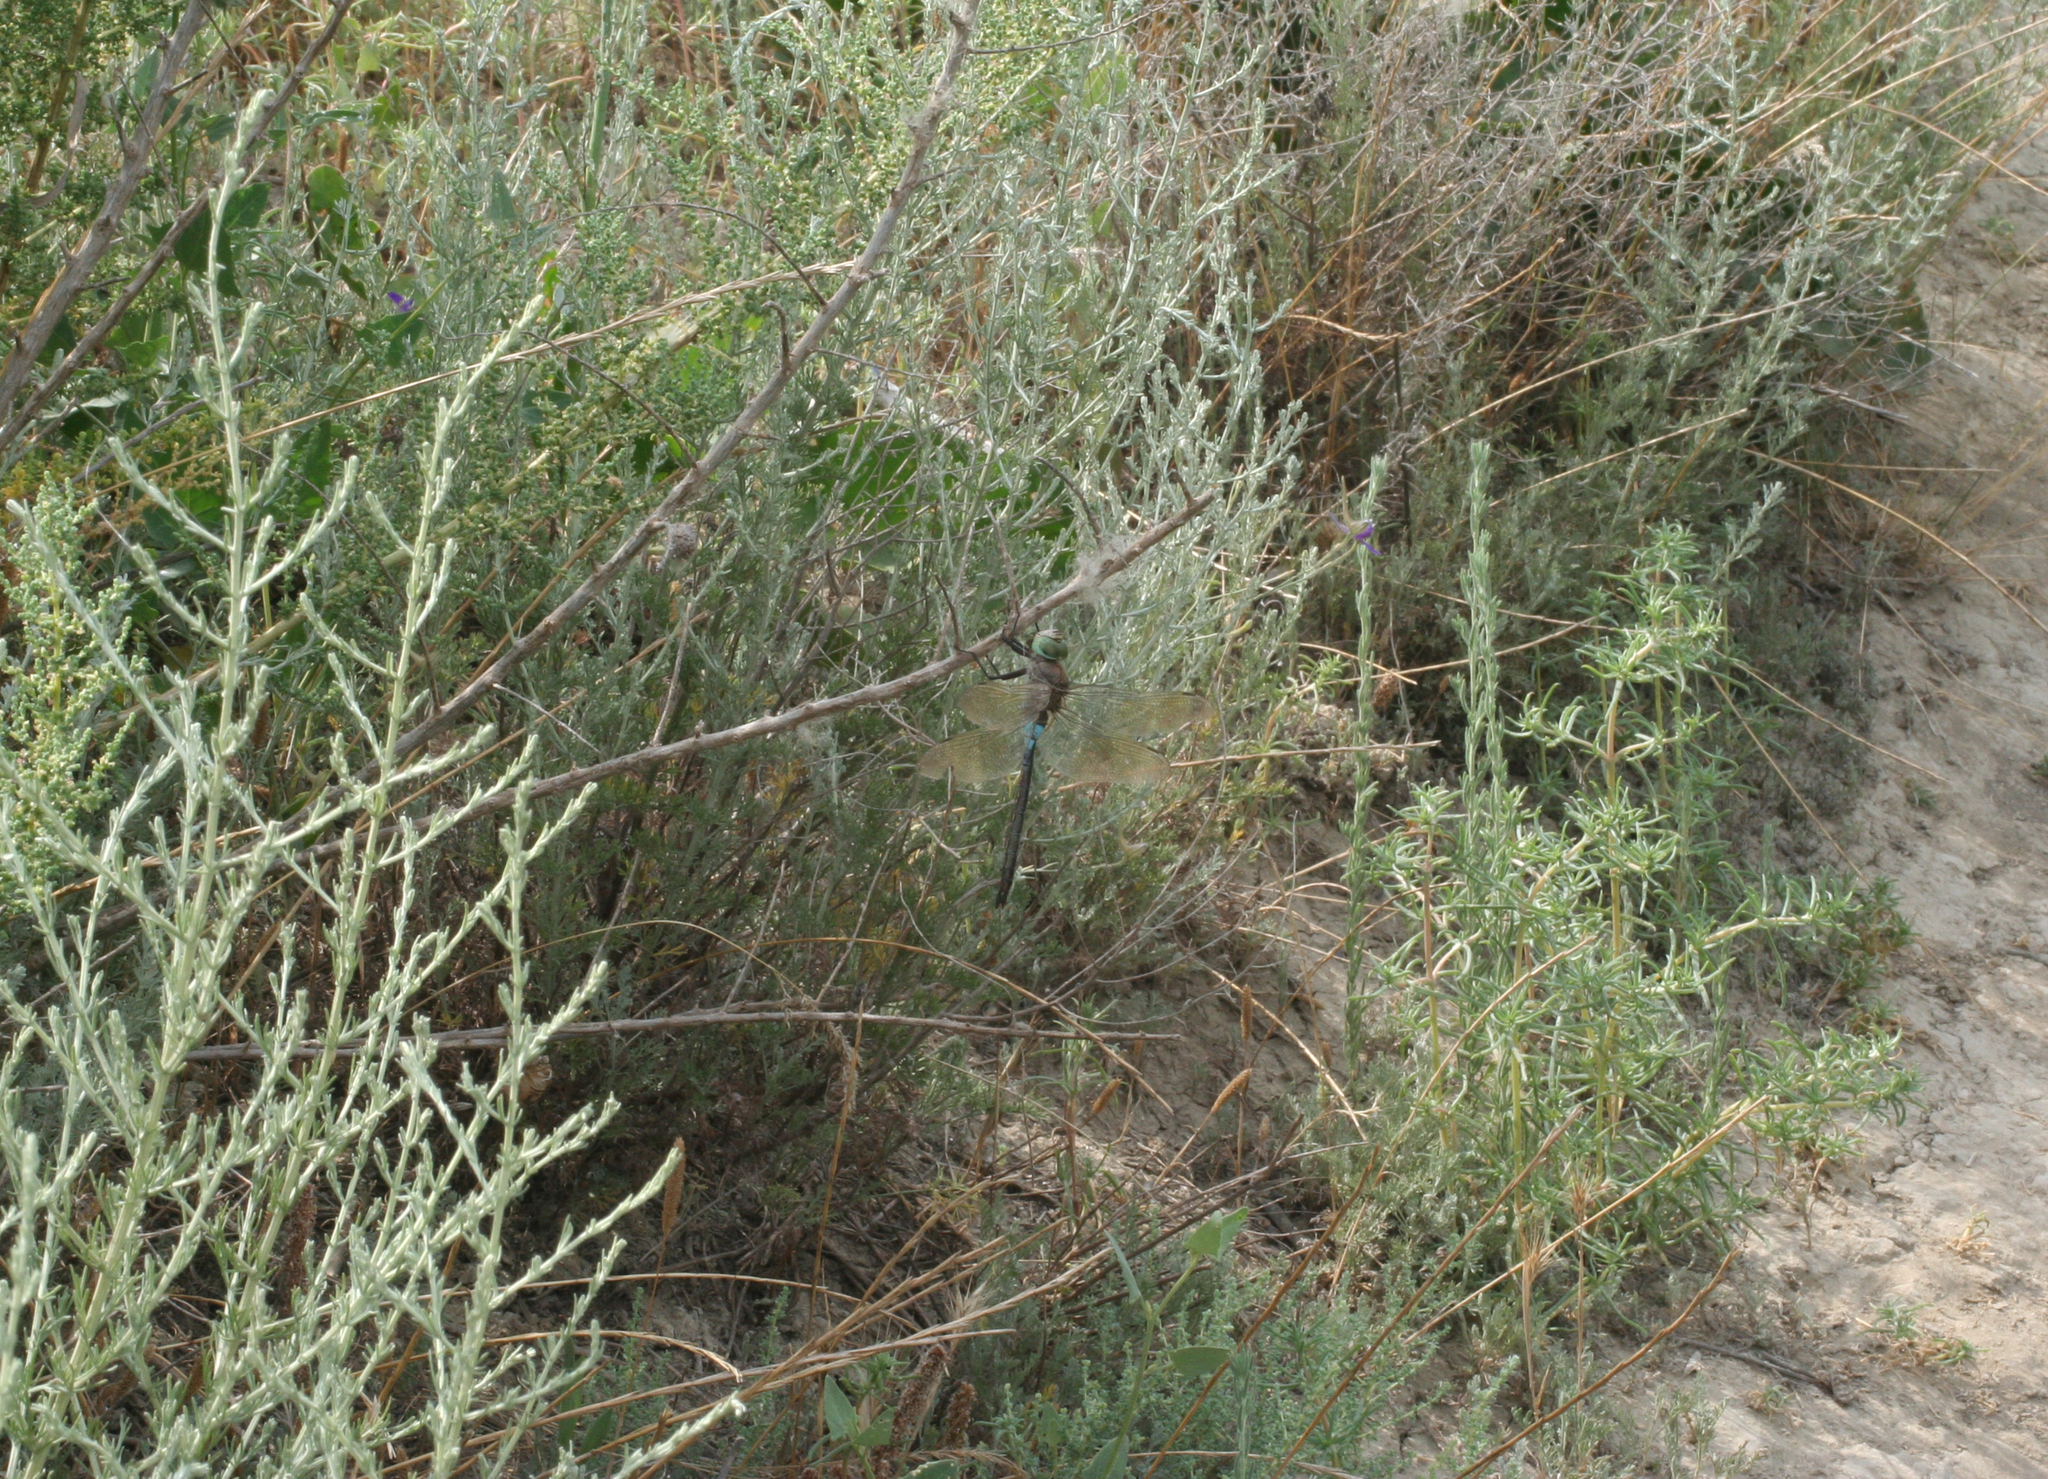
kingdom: Animalia
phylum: Arthropoda
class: Insecta
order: Odonata
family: Aeshnidae
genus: Anax
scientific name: Anax parthenope
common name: Lesser emperor
